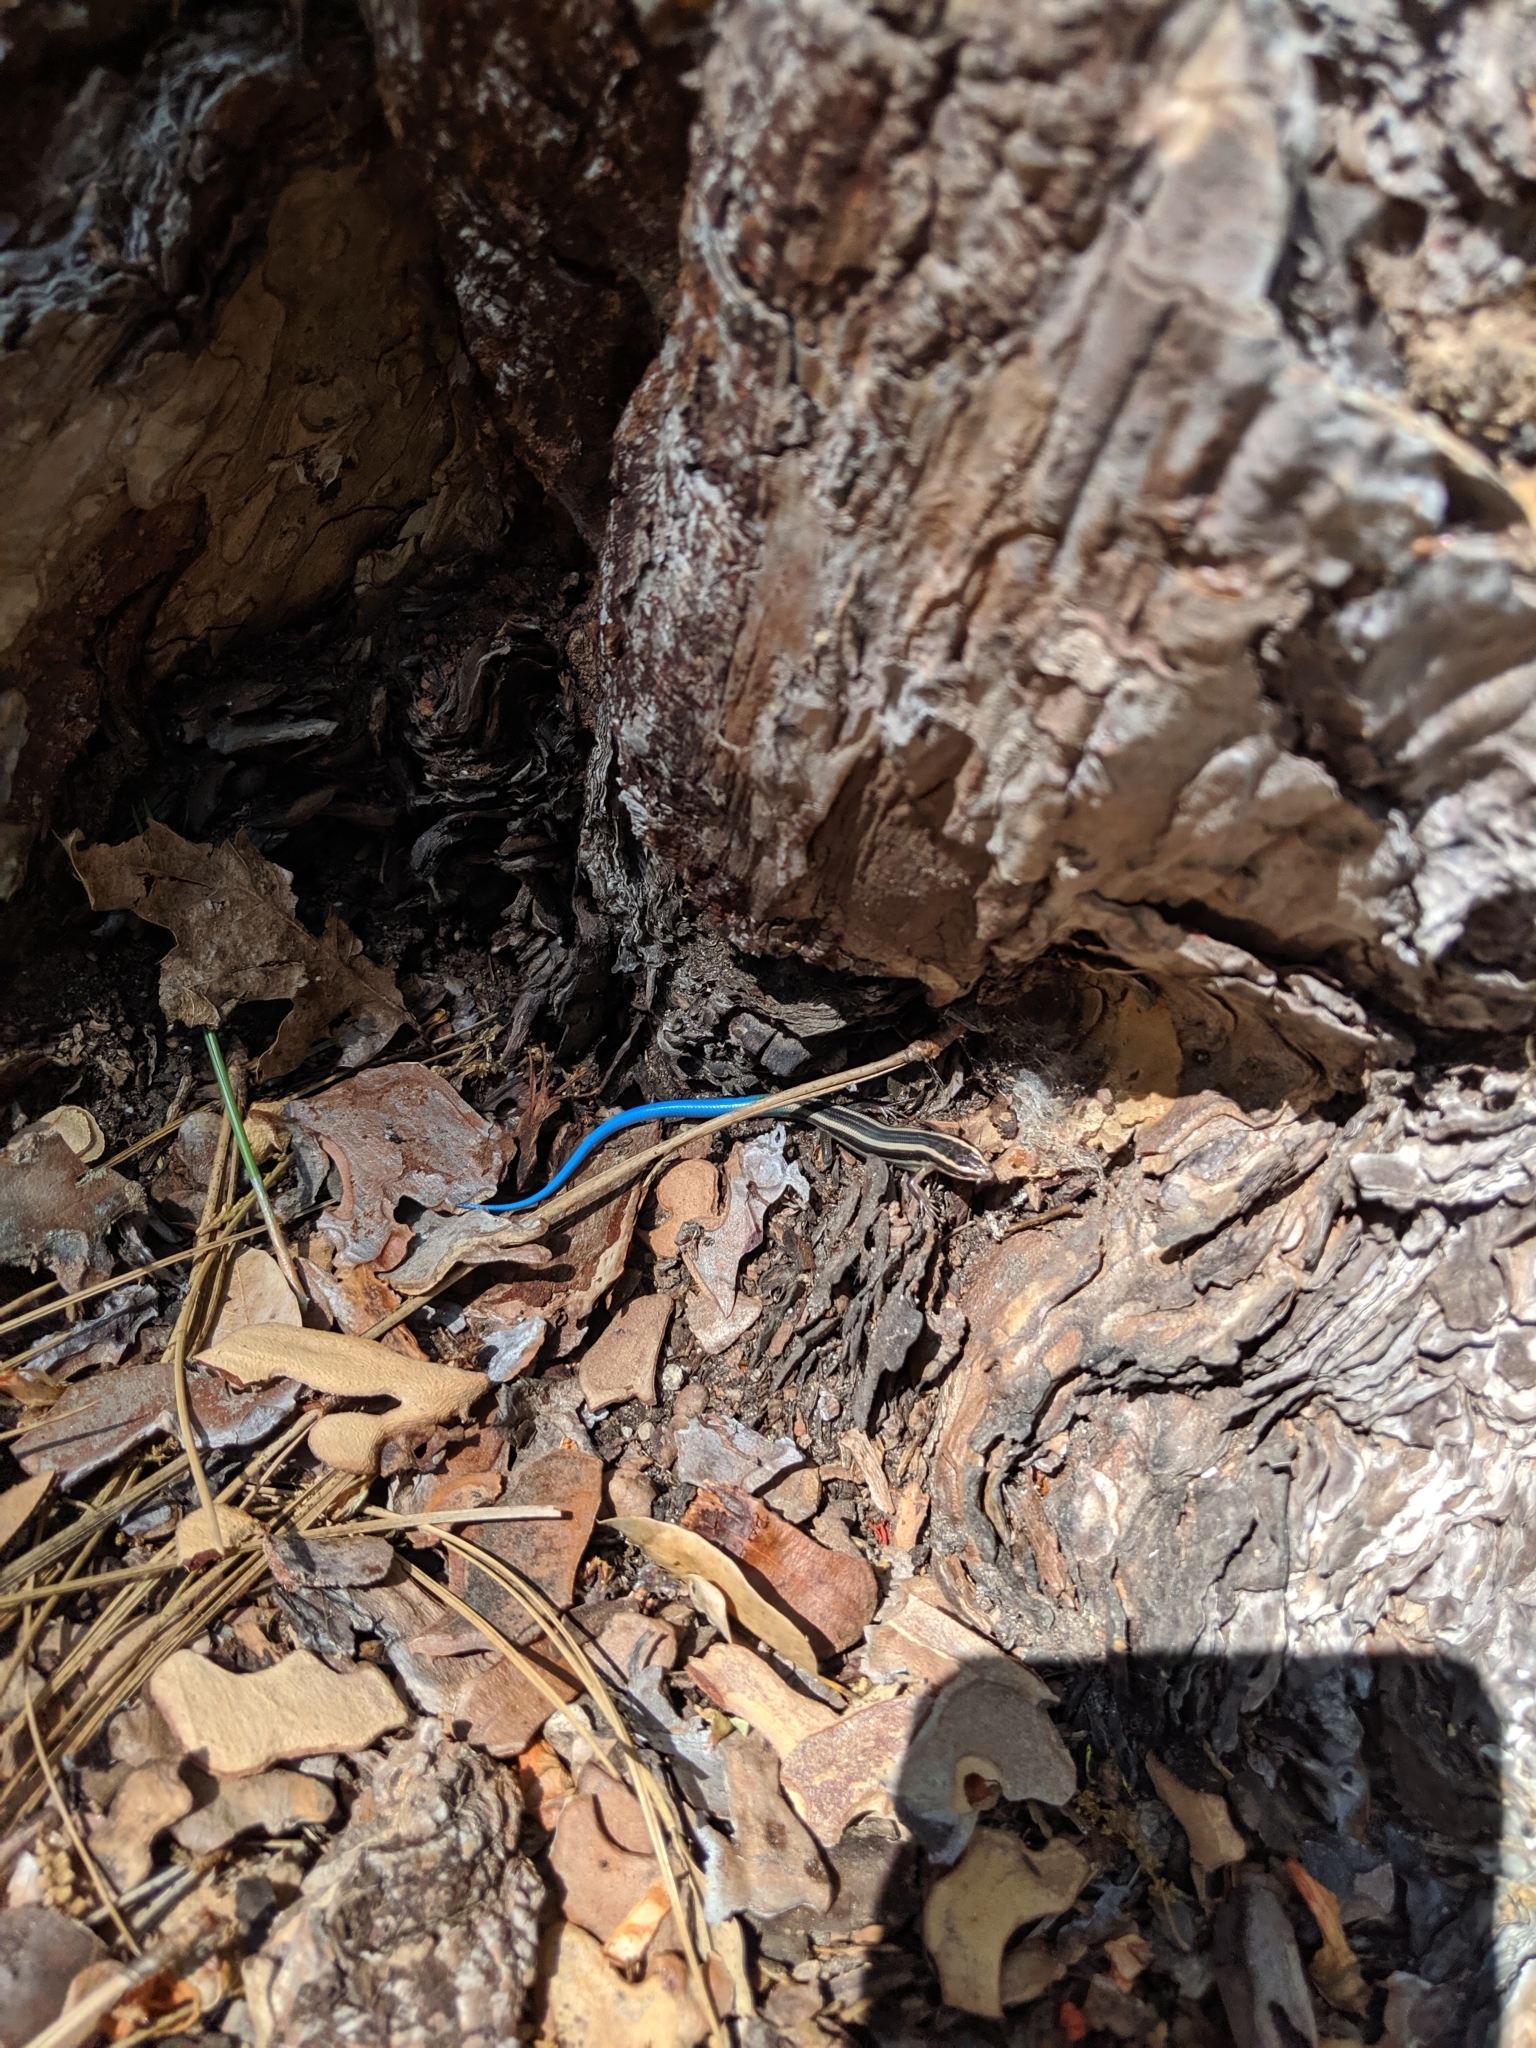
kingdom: Animalia
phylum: Chordata
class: Squamata
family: Scincidae
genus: Plestiodon
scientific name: Plestiodon gilberti
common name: Gilbert's skink
